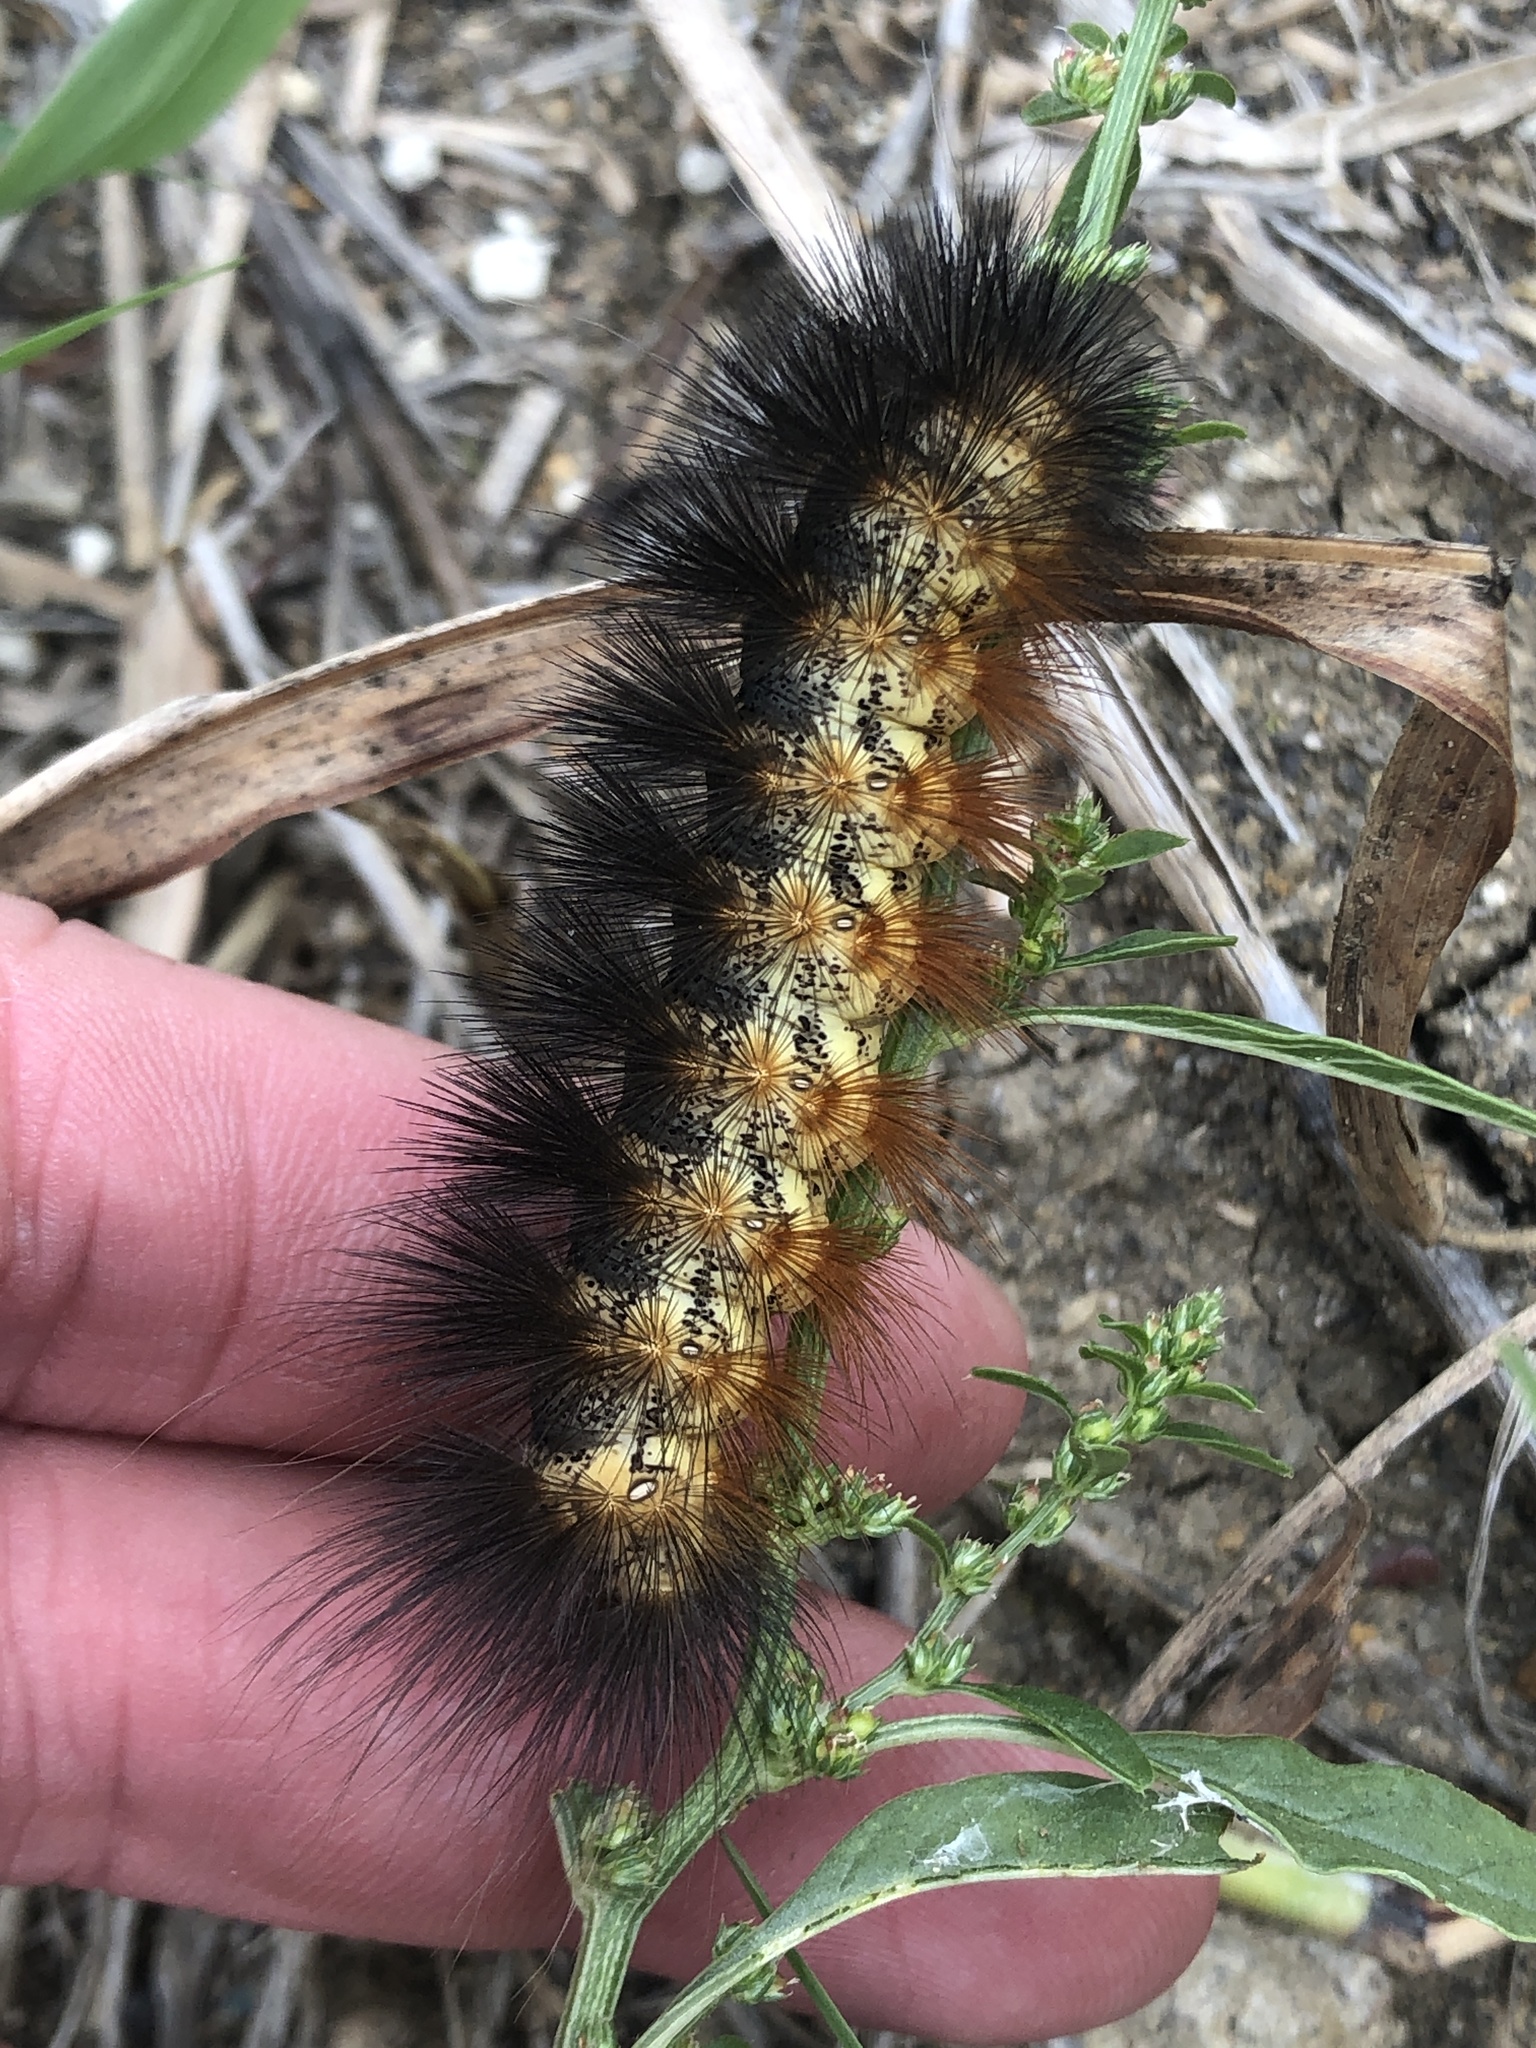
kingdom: Animalia
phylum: Arthropoda
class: Insecta
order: Lepidoptera
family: Erebidae
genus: Estigmene
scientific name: Estigmene acrea
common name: Salt marsh moth
